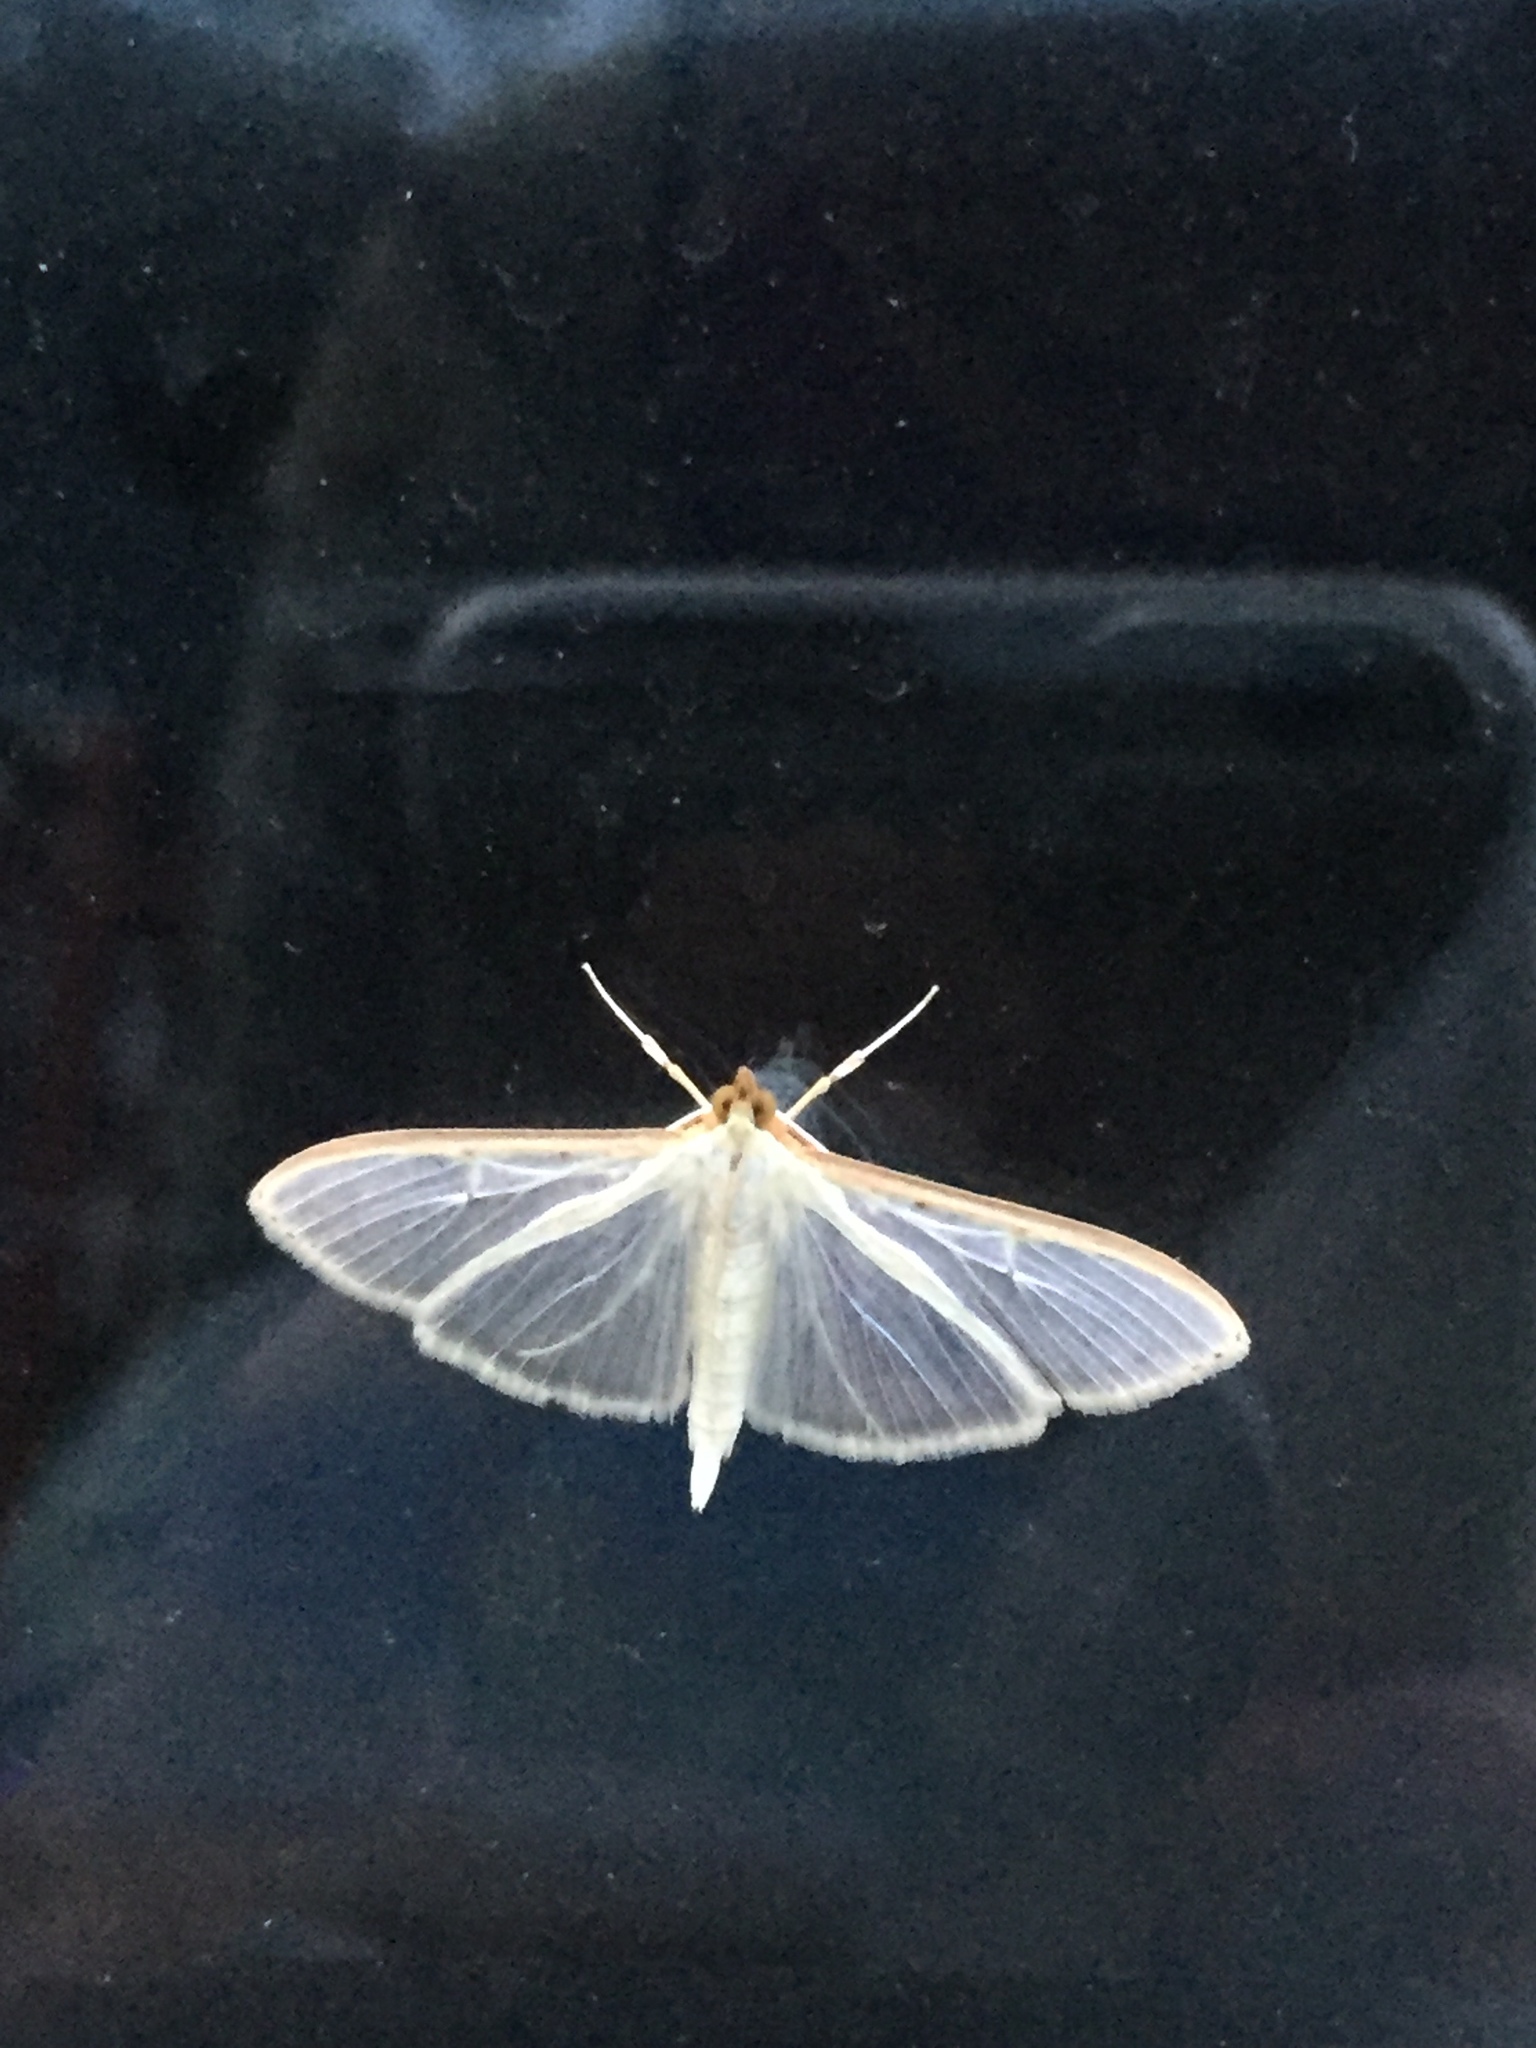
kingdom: Animalia
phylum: Arthropoda
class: Insecta
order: Lepidoptera
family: Crambidae
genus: Palpita
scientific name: Palpita quadristigmalis
